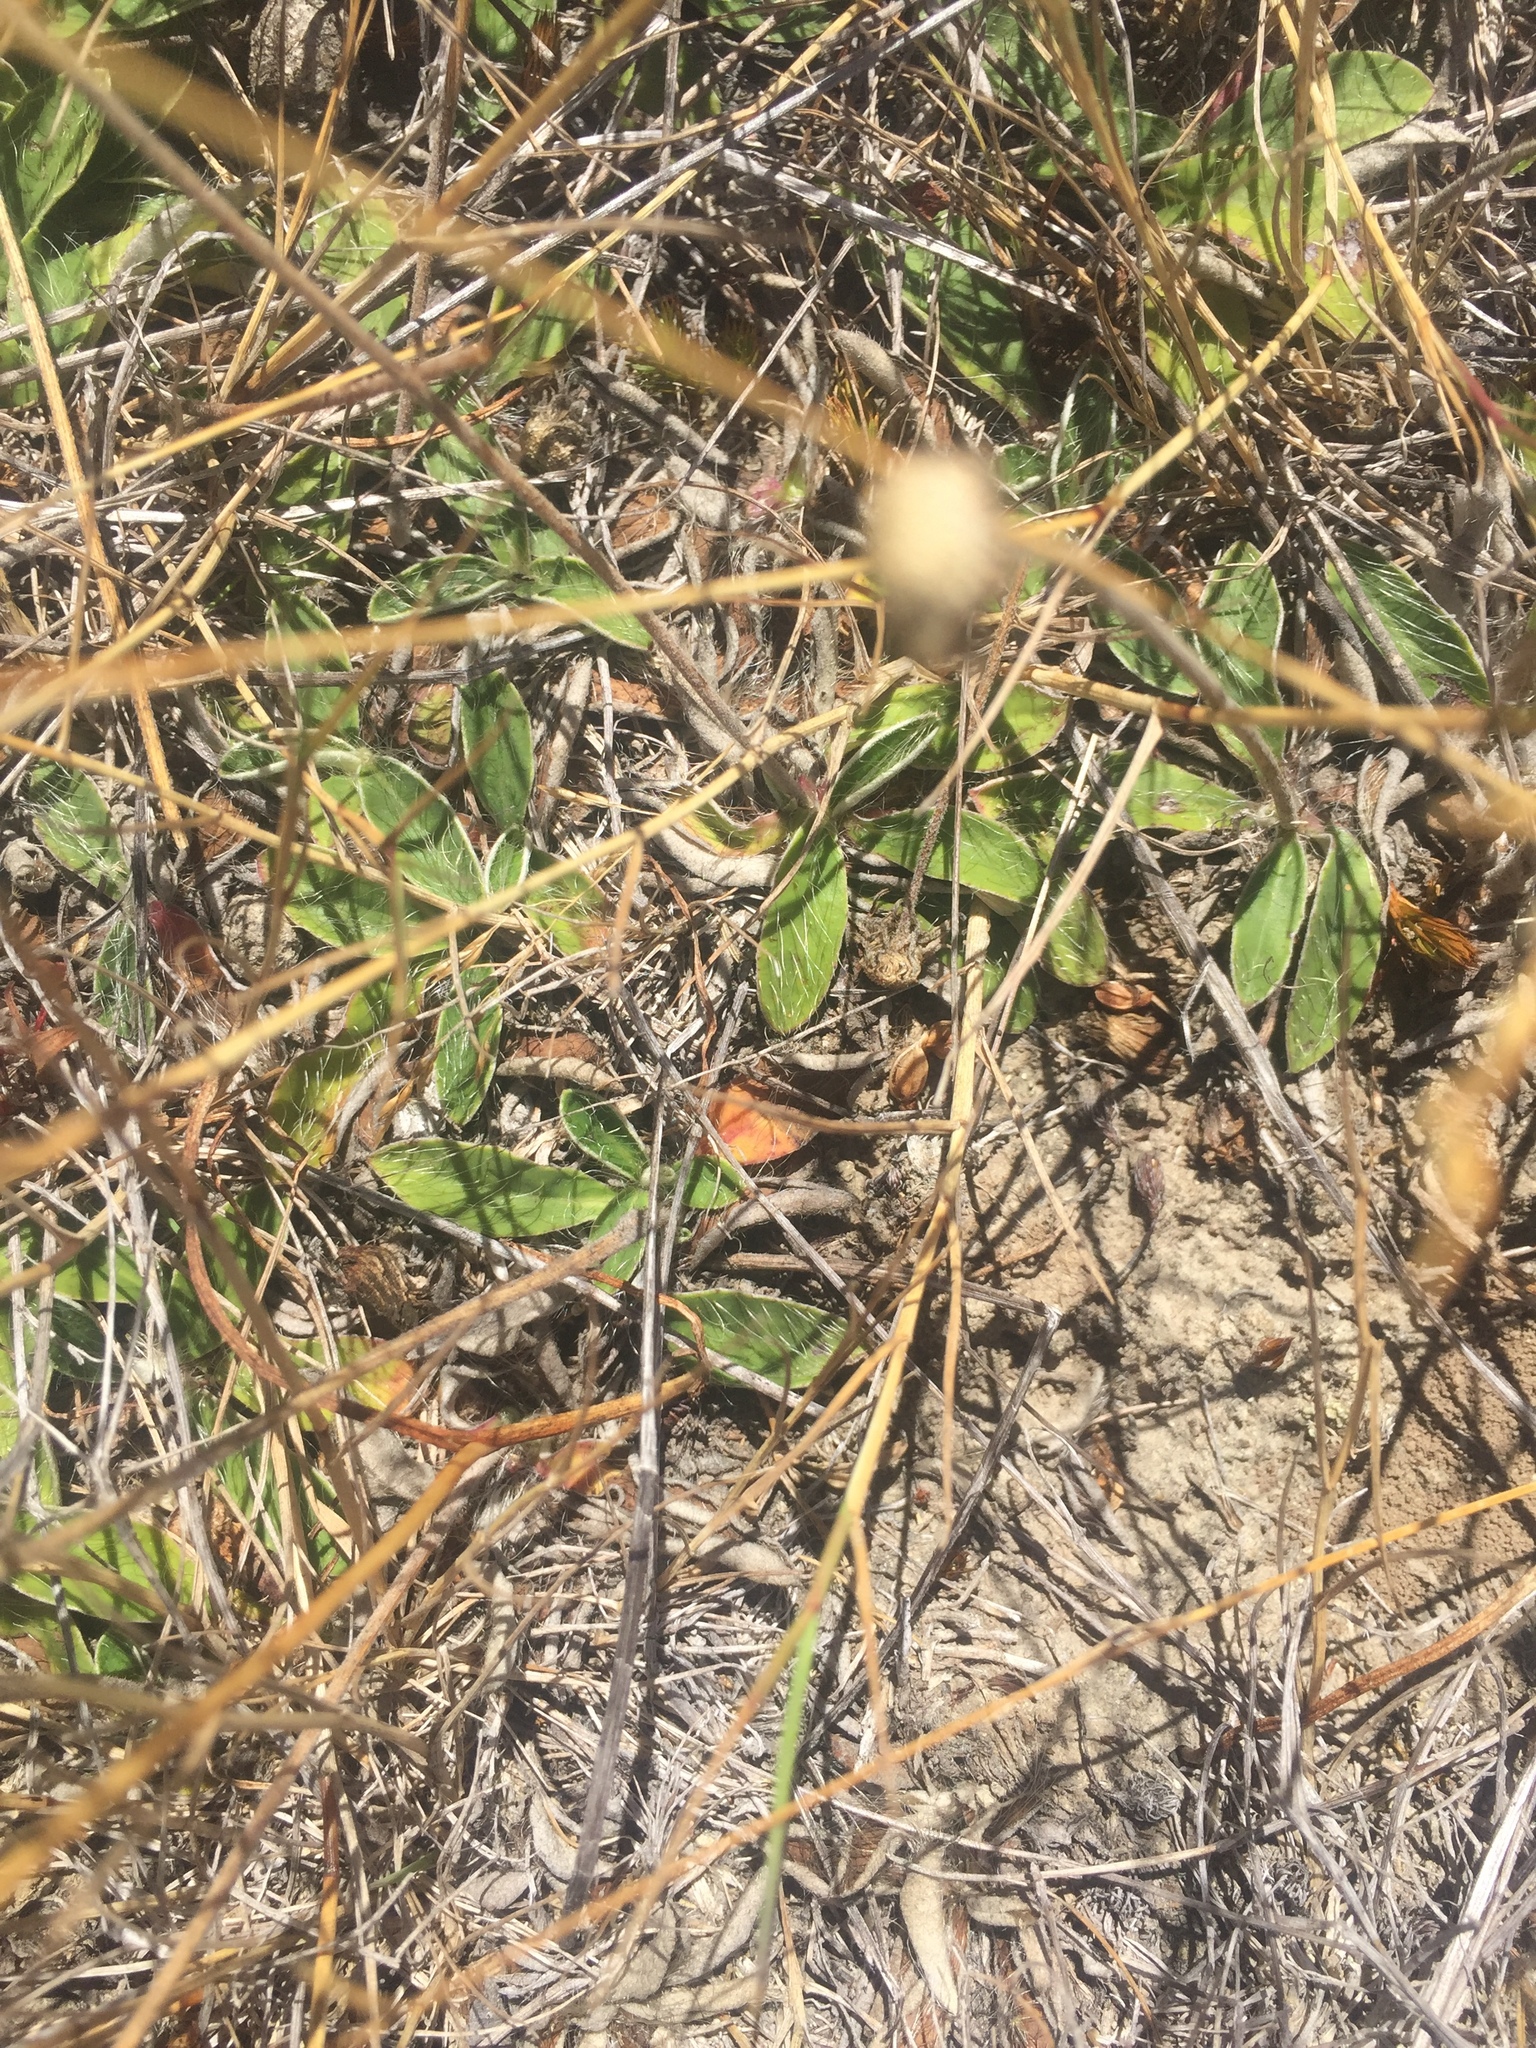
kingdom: Plantae
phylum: Tracheophyta
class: Magnoliopsida
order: Asterales
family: Asteraceae
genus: Pilosella
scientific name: Pilosella officinarum
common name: Mouse-ear hawkweed
